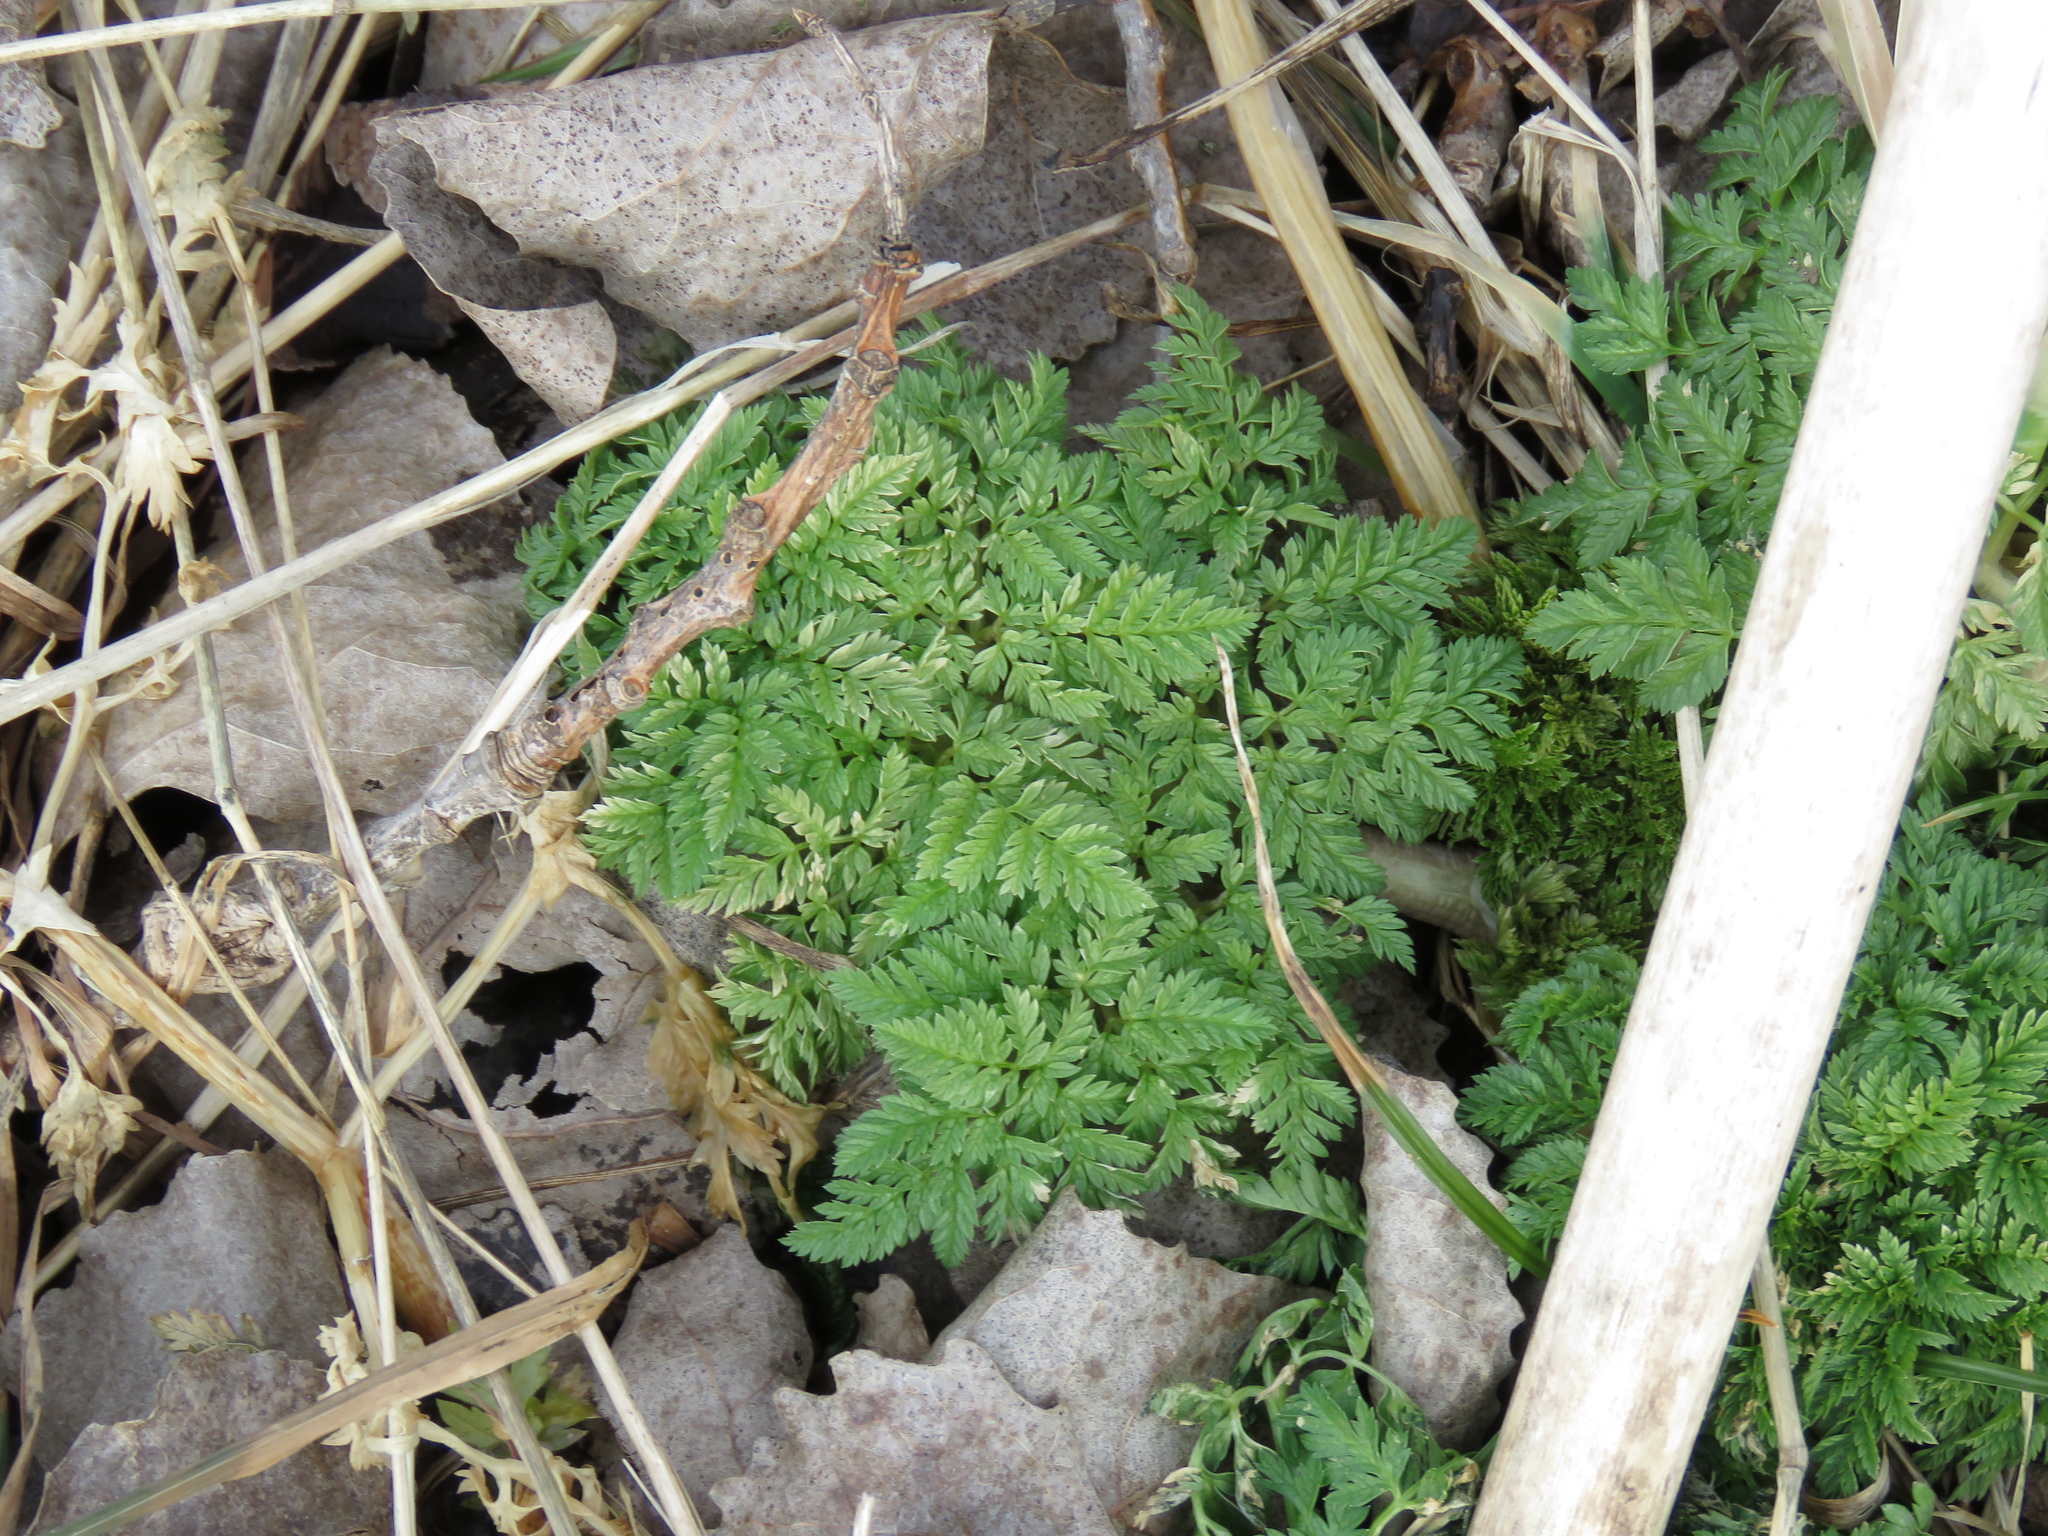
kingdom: Plantae
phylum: Tracheophyta
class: Magnoliopsida
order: Apiales
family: Apiaceae
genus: Conium
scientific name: Conium maculatum
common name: Hemlock
